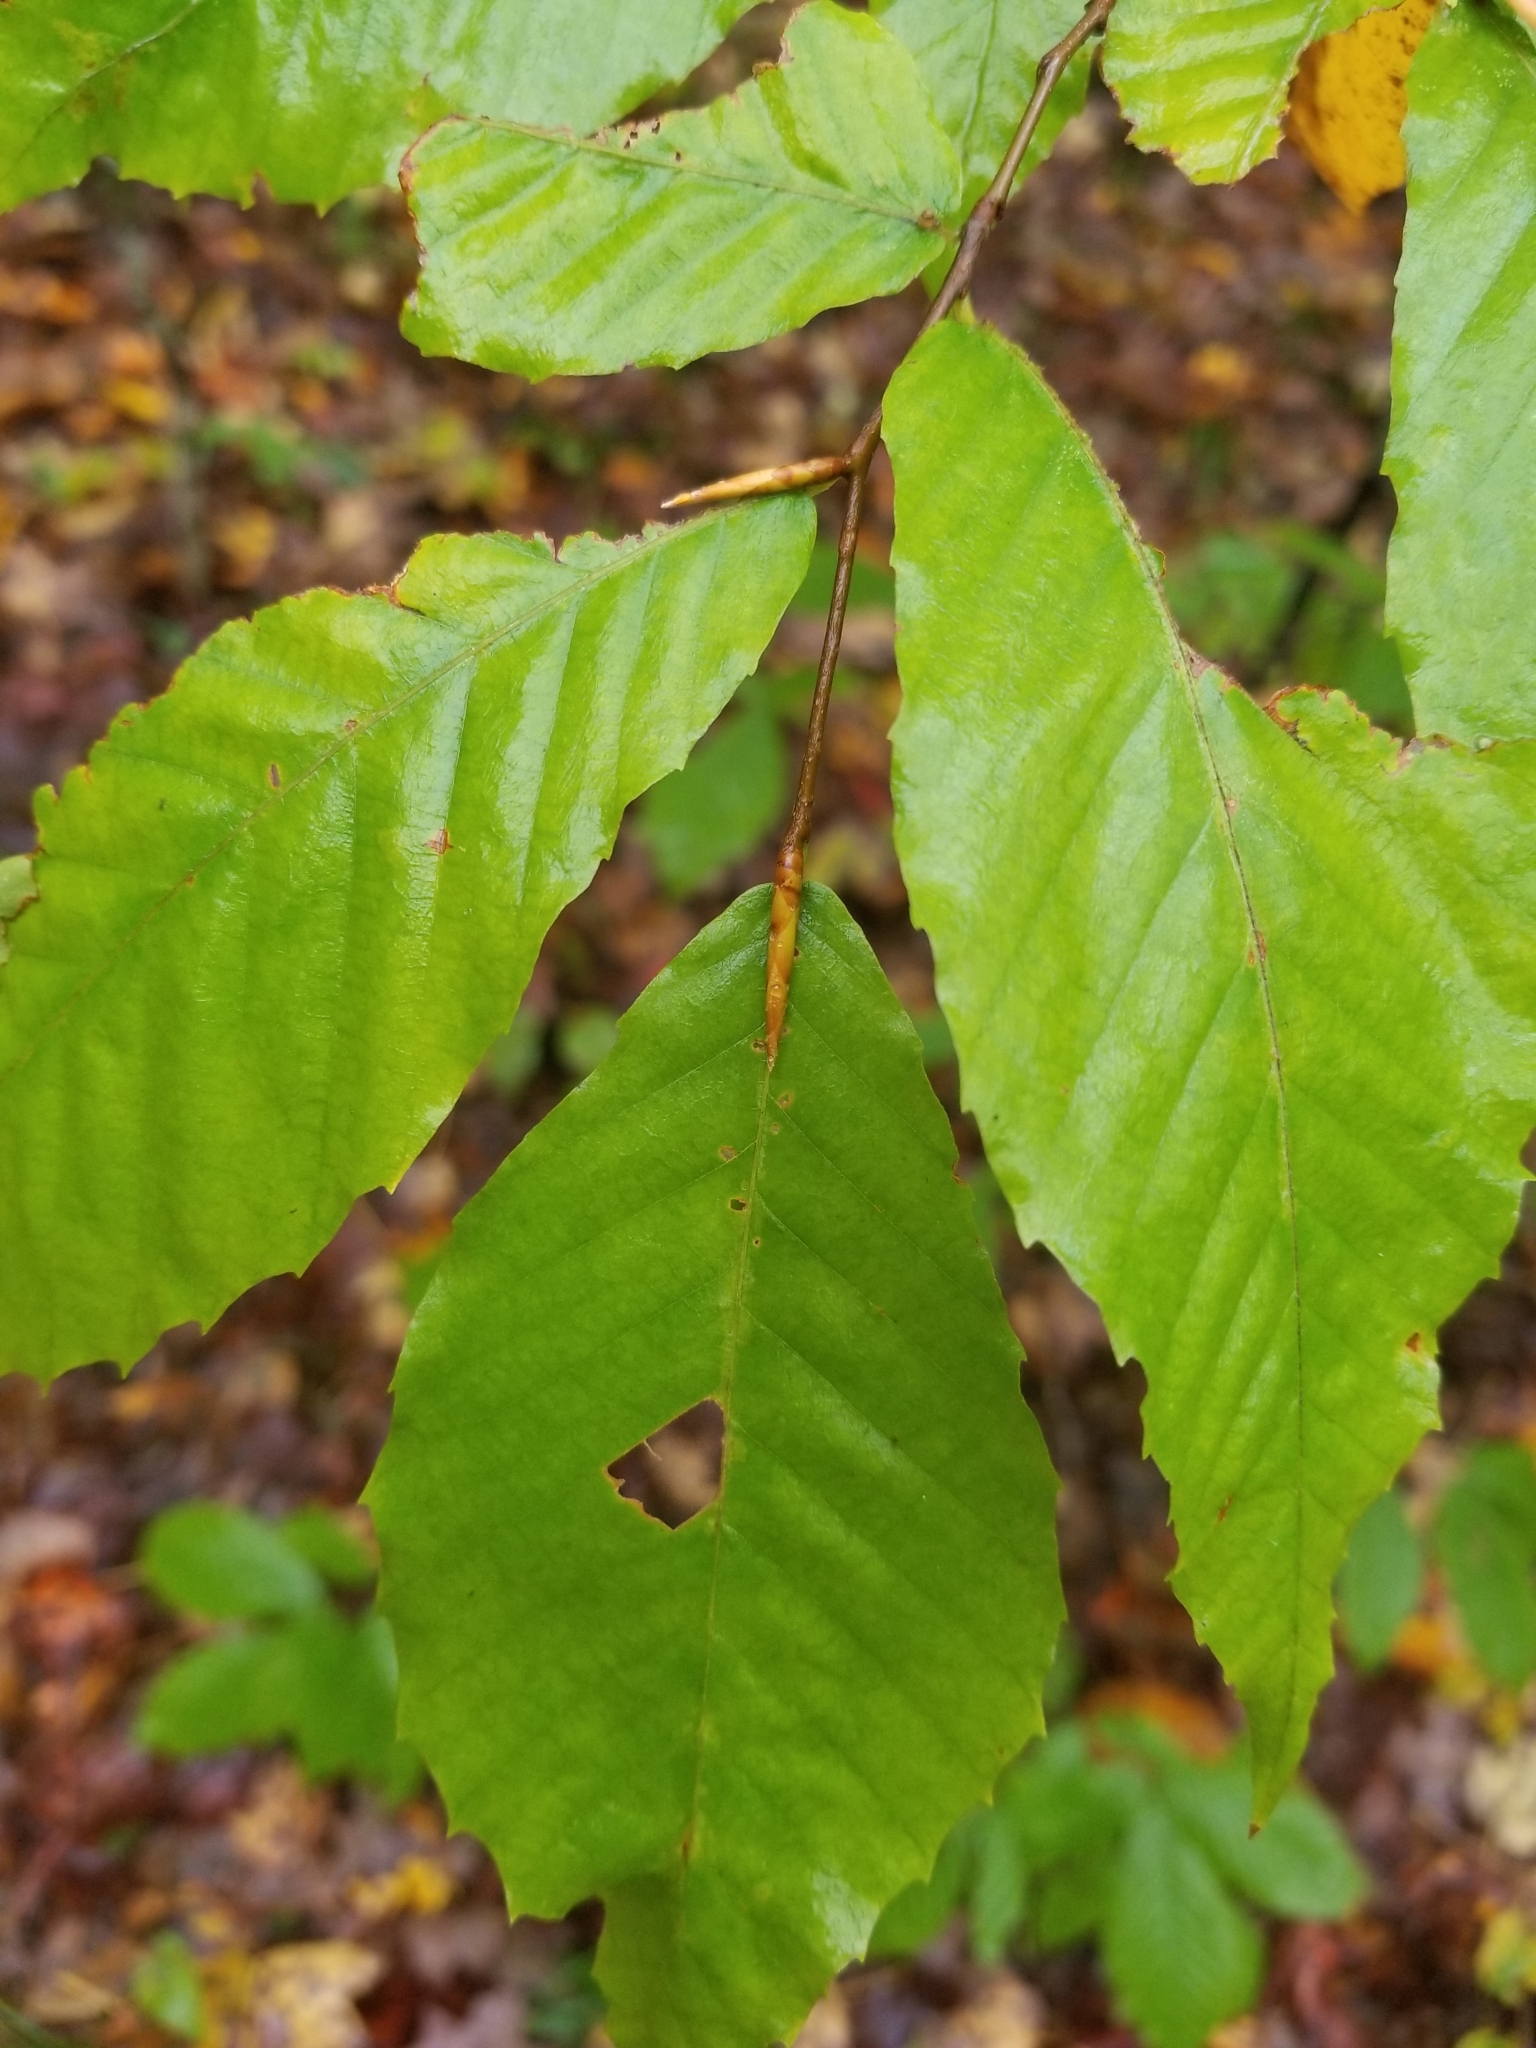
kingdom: Plantae
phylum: Tracheophyta
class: Magnoliopsida
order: Fagales
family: Fagaceae
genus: Fagus
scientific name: Fagus grandifolia
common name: American beech
